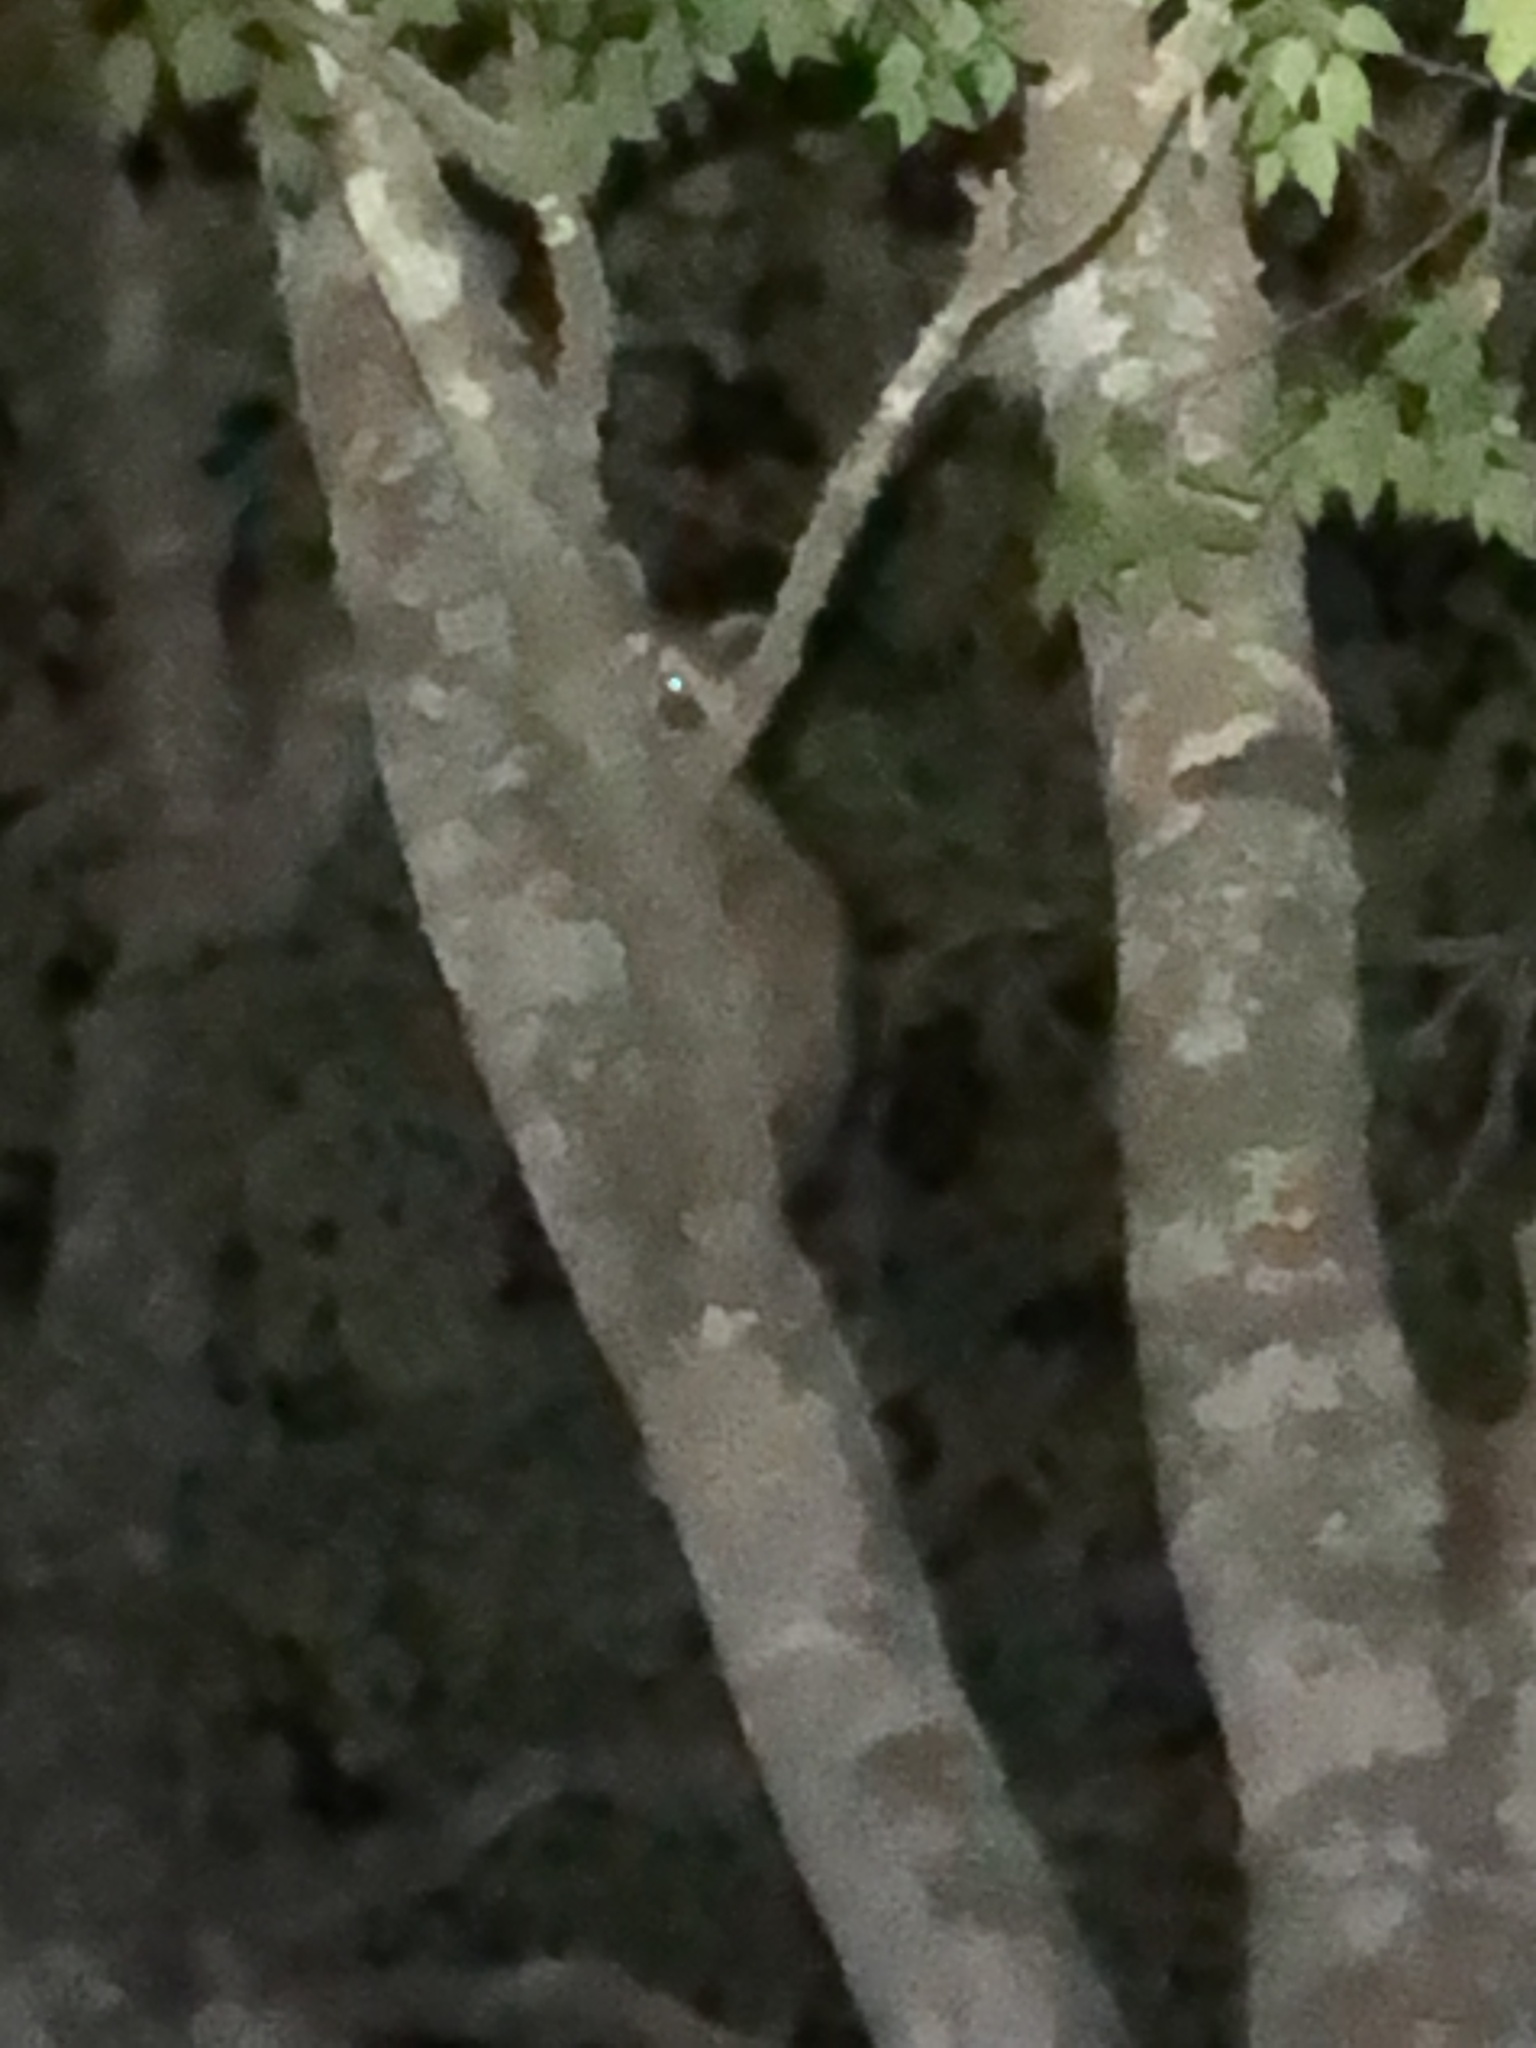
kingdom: Animalia
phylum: Chordata
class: Mammalia
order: Carnivora
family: Procyonidae
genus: Procyon
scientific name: Procyon lotor
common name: Raccoon
